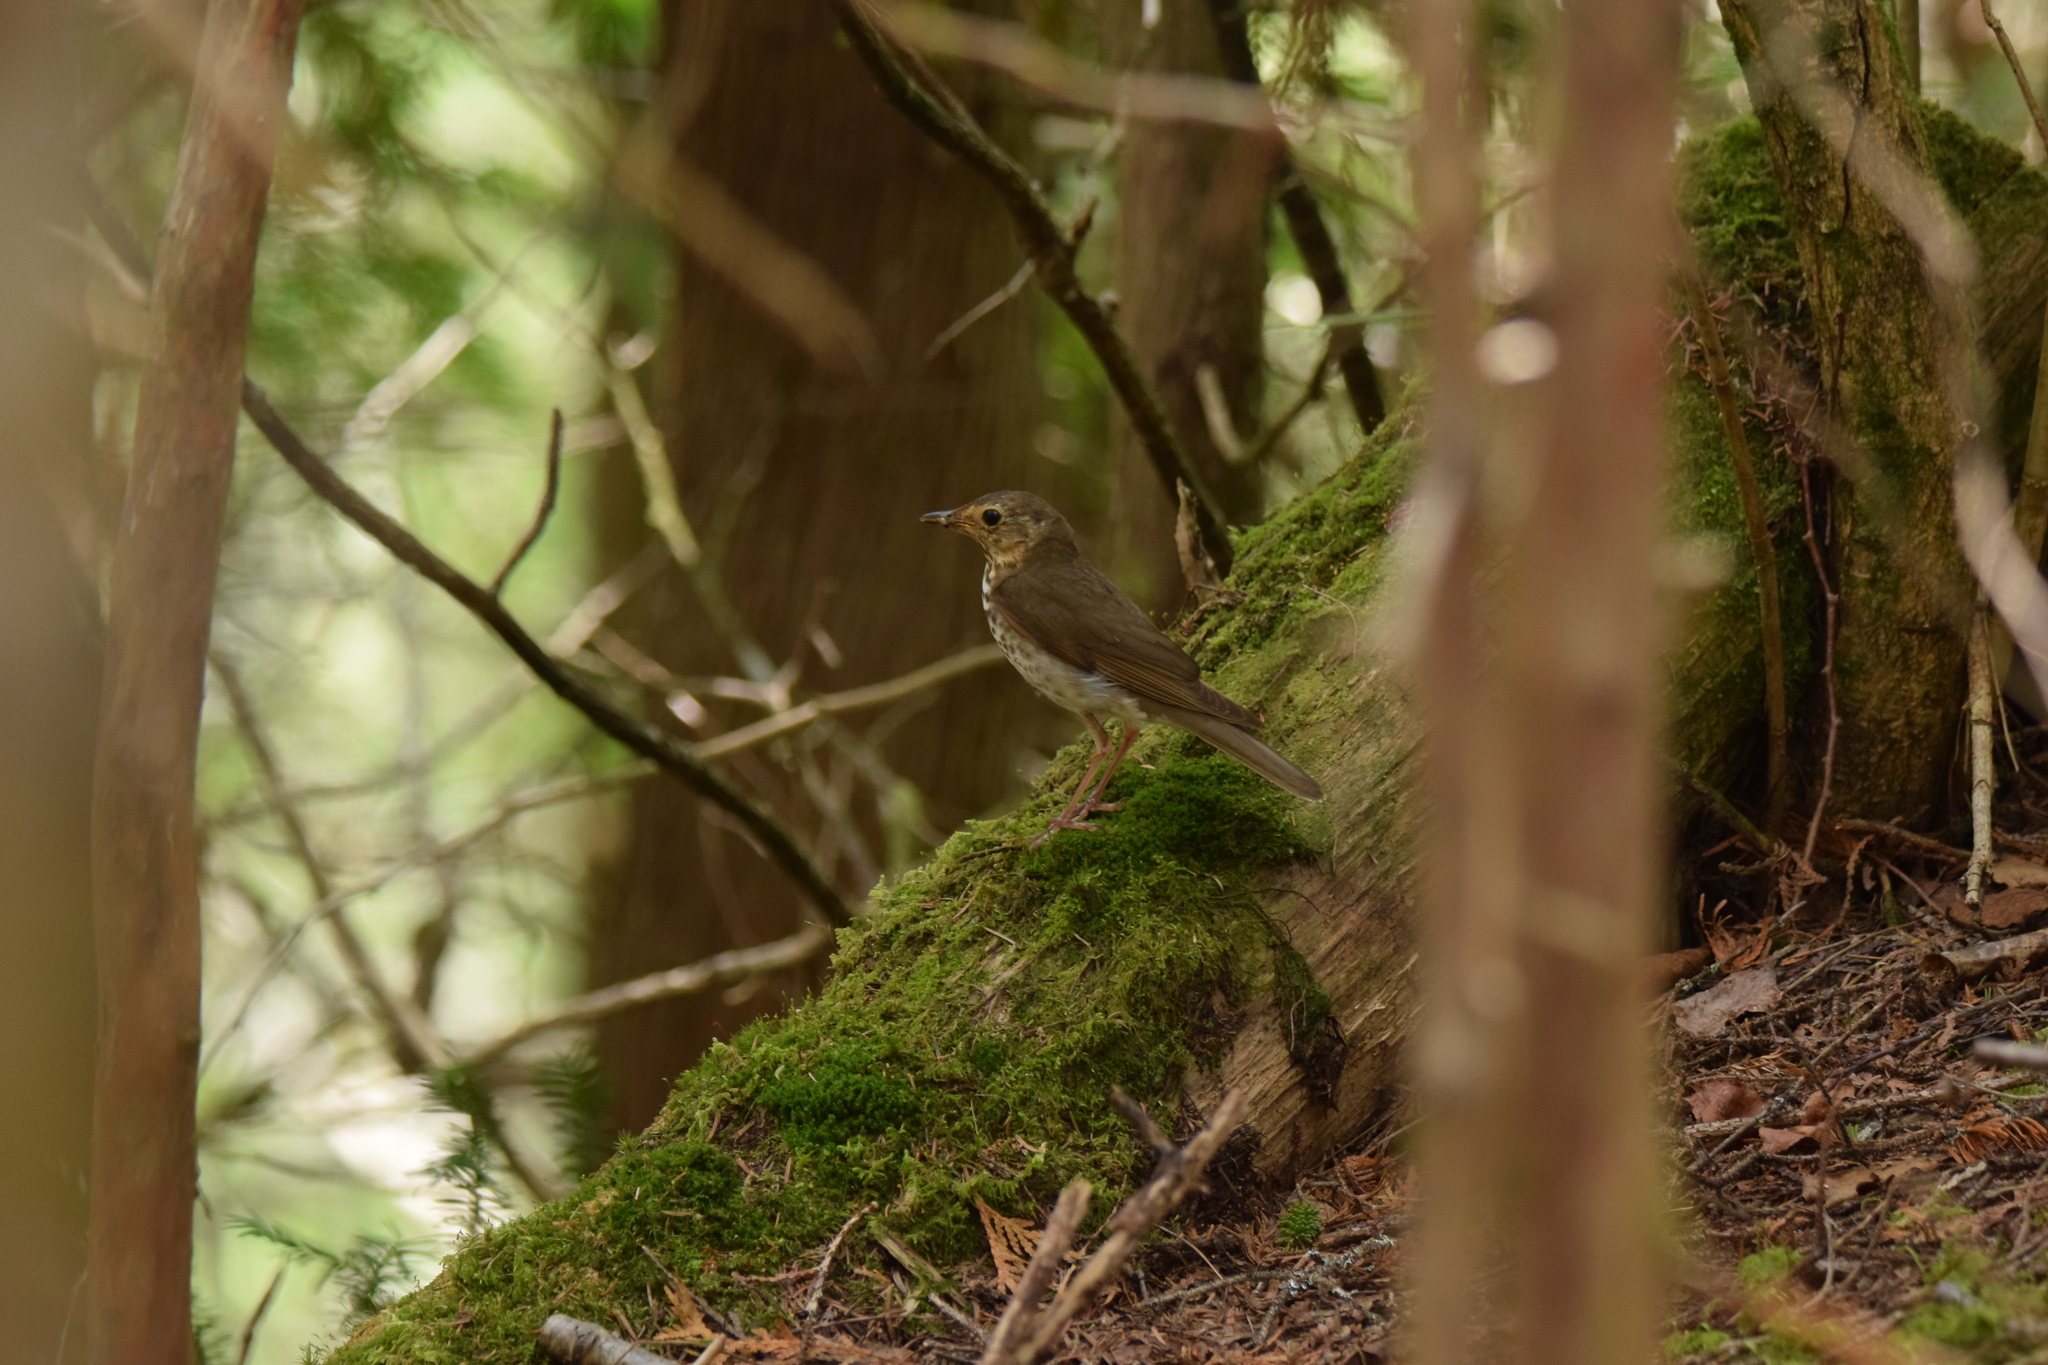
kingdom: Animalia
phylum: Chordata
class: Aves
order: Passeriformes
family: Turdidae
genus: Catharus
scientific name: Catharus ustulatus
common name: Swainson's thrush
